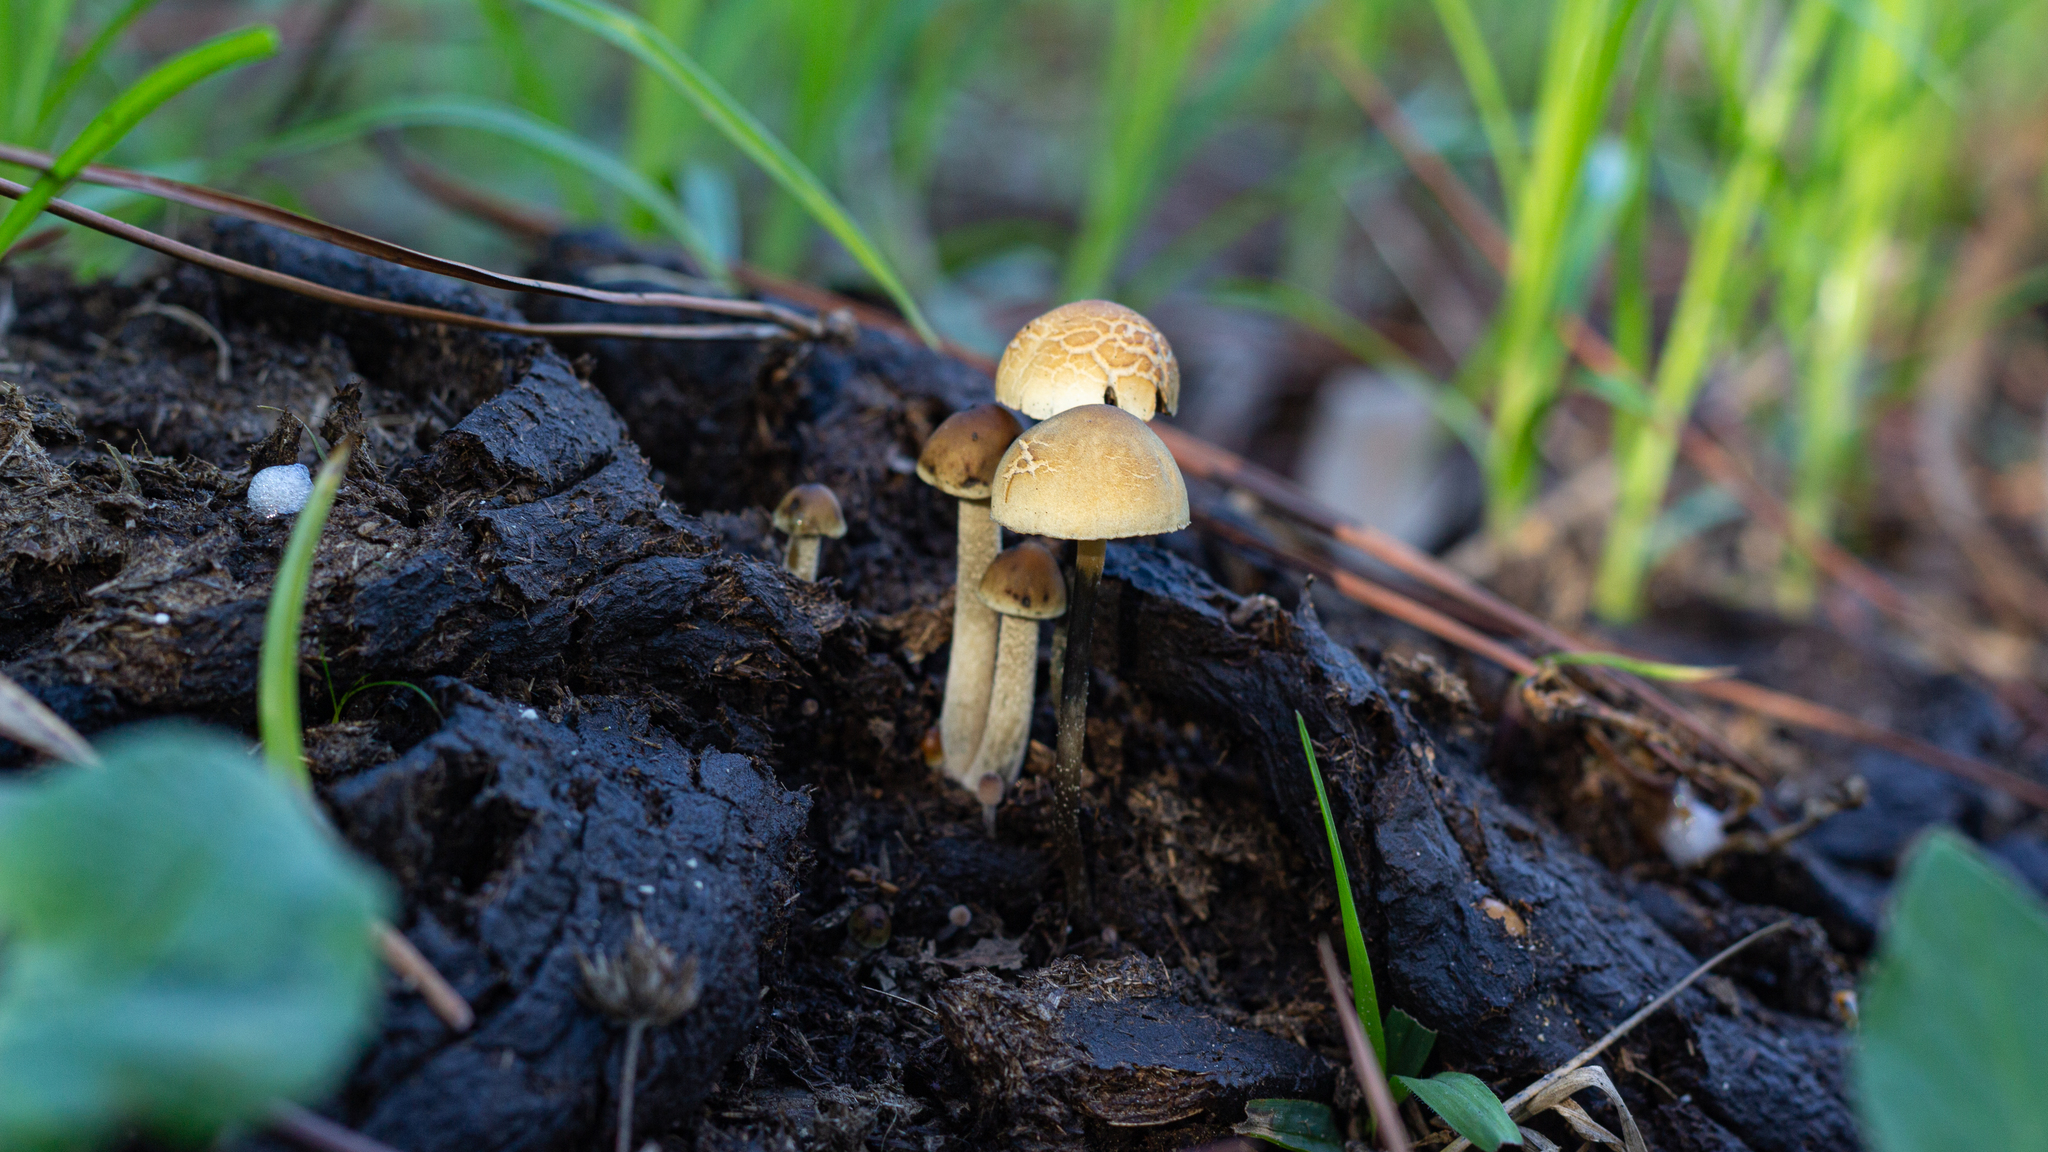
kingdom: Fungi
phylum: Basidiomycota
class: Agaricomycetes
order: Agaricales
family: Bolbitiaceae
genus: Panaeolus
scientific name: Panaeolus cyanescens
